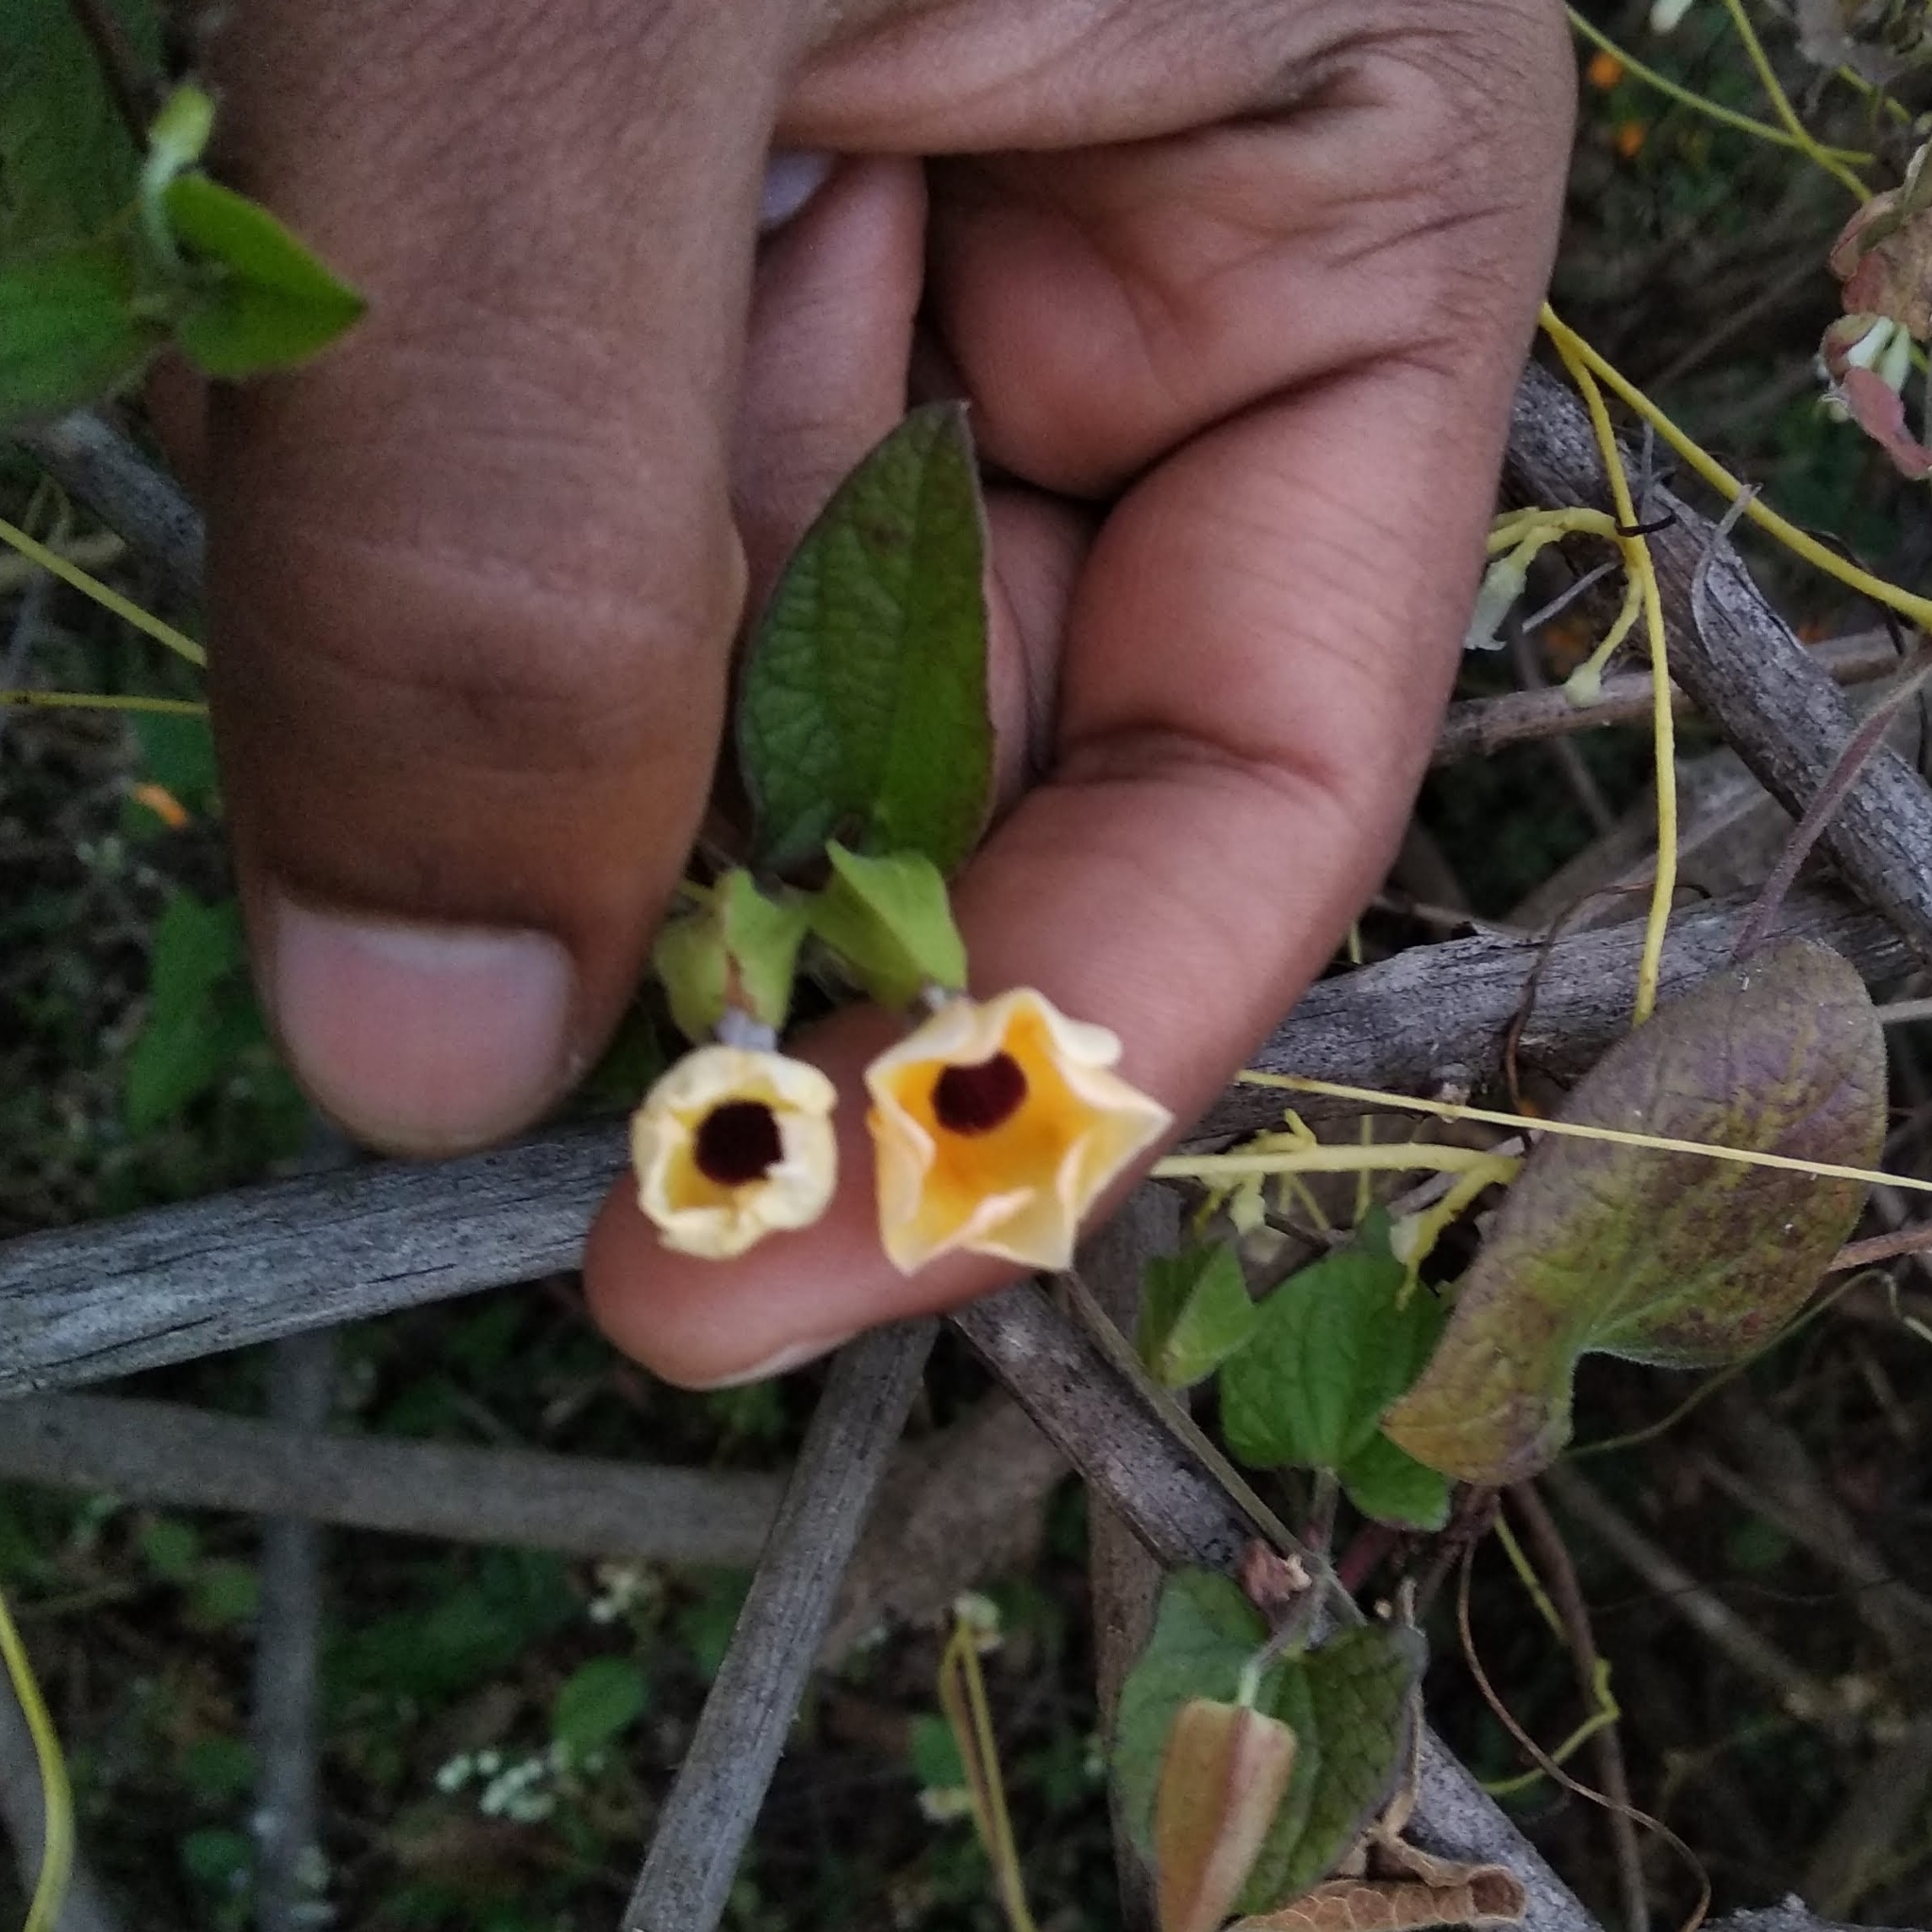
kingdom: Plantae
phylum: Tracheophyta
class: Magnoliopsida
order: Lamiales
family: Acanthaceae
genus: Thunbergia
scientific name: Thunbergia alata
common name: Blackeyed susan vine
